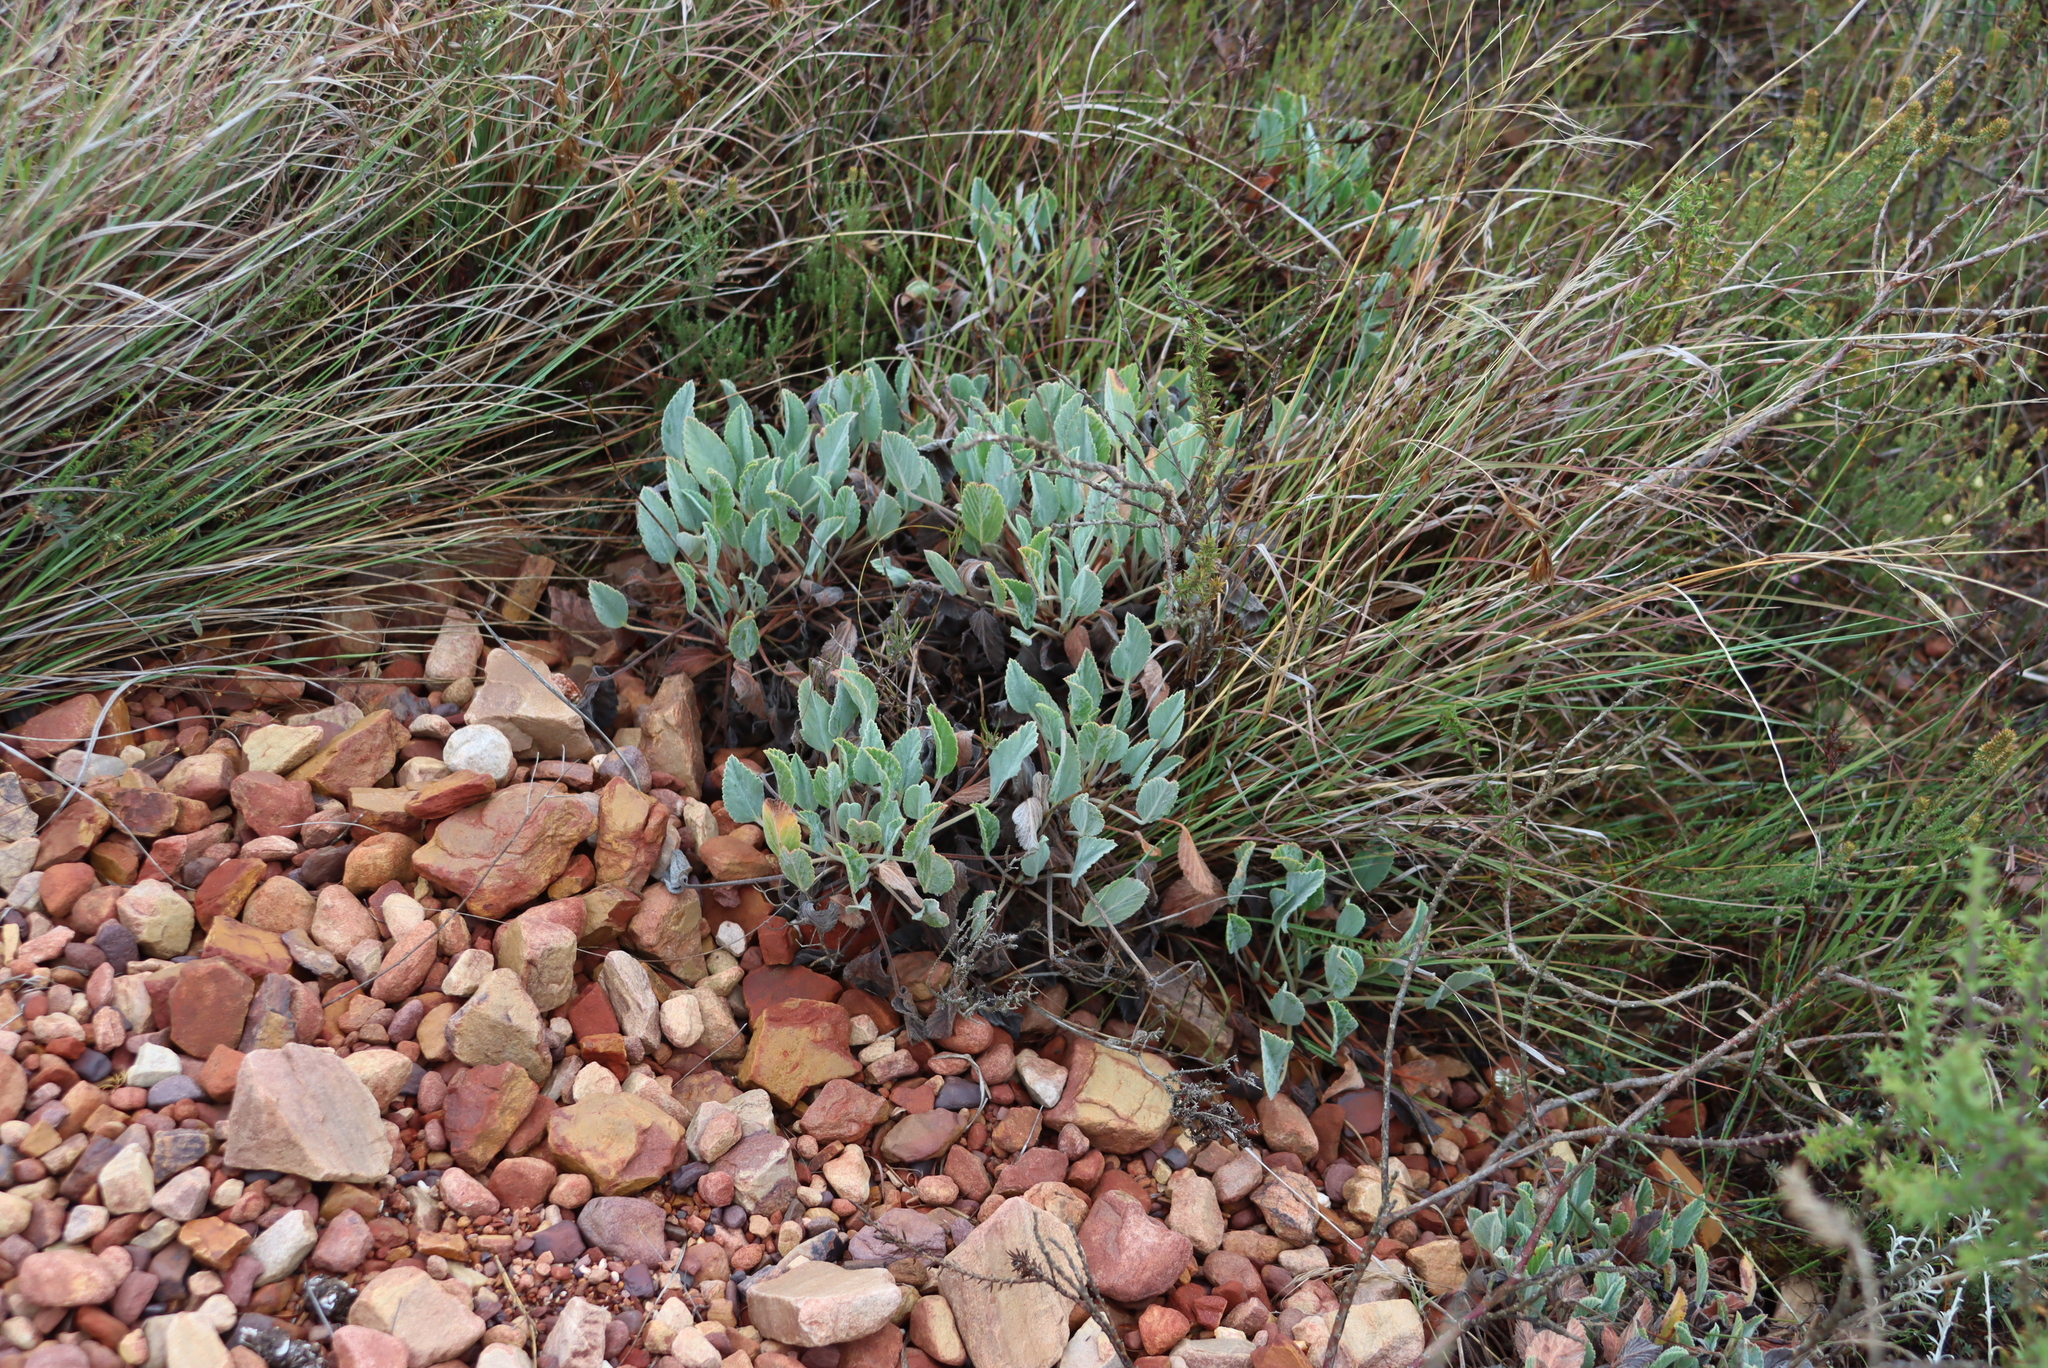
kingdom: Plantae
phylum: Tracheophyta
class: Magnoliopsida
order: Geraniales
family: Geraniaceae
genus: Pelargonium
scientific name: Pelargonium ovale
